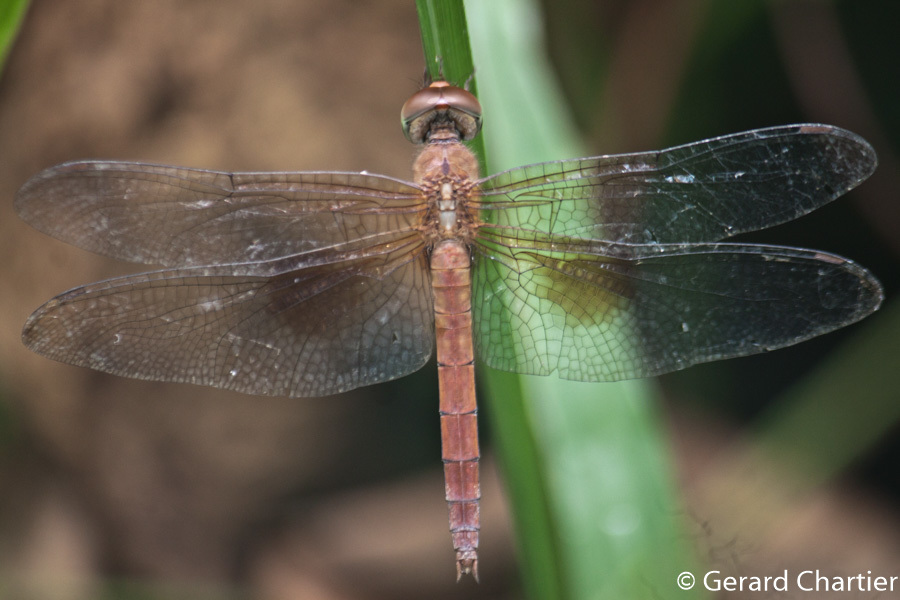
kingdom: Animalia
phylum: Arthropoda
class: Insecta
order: Odonata
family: Libellulidae
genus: Tholymis
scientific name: Tholymis tillarga
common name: Coral-tailed cloud wing
